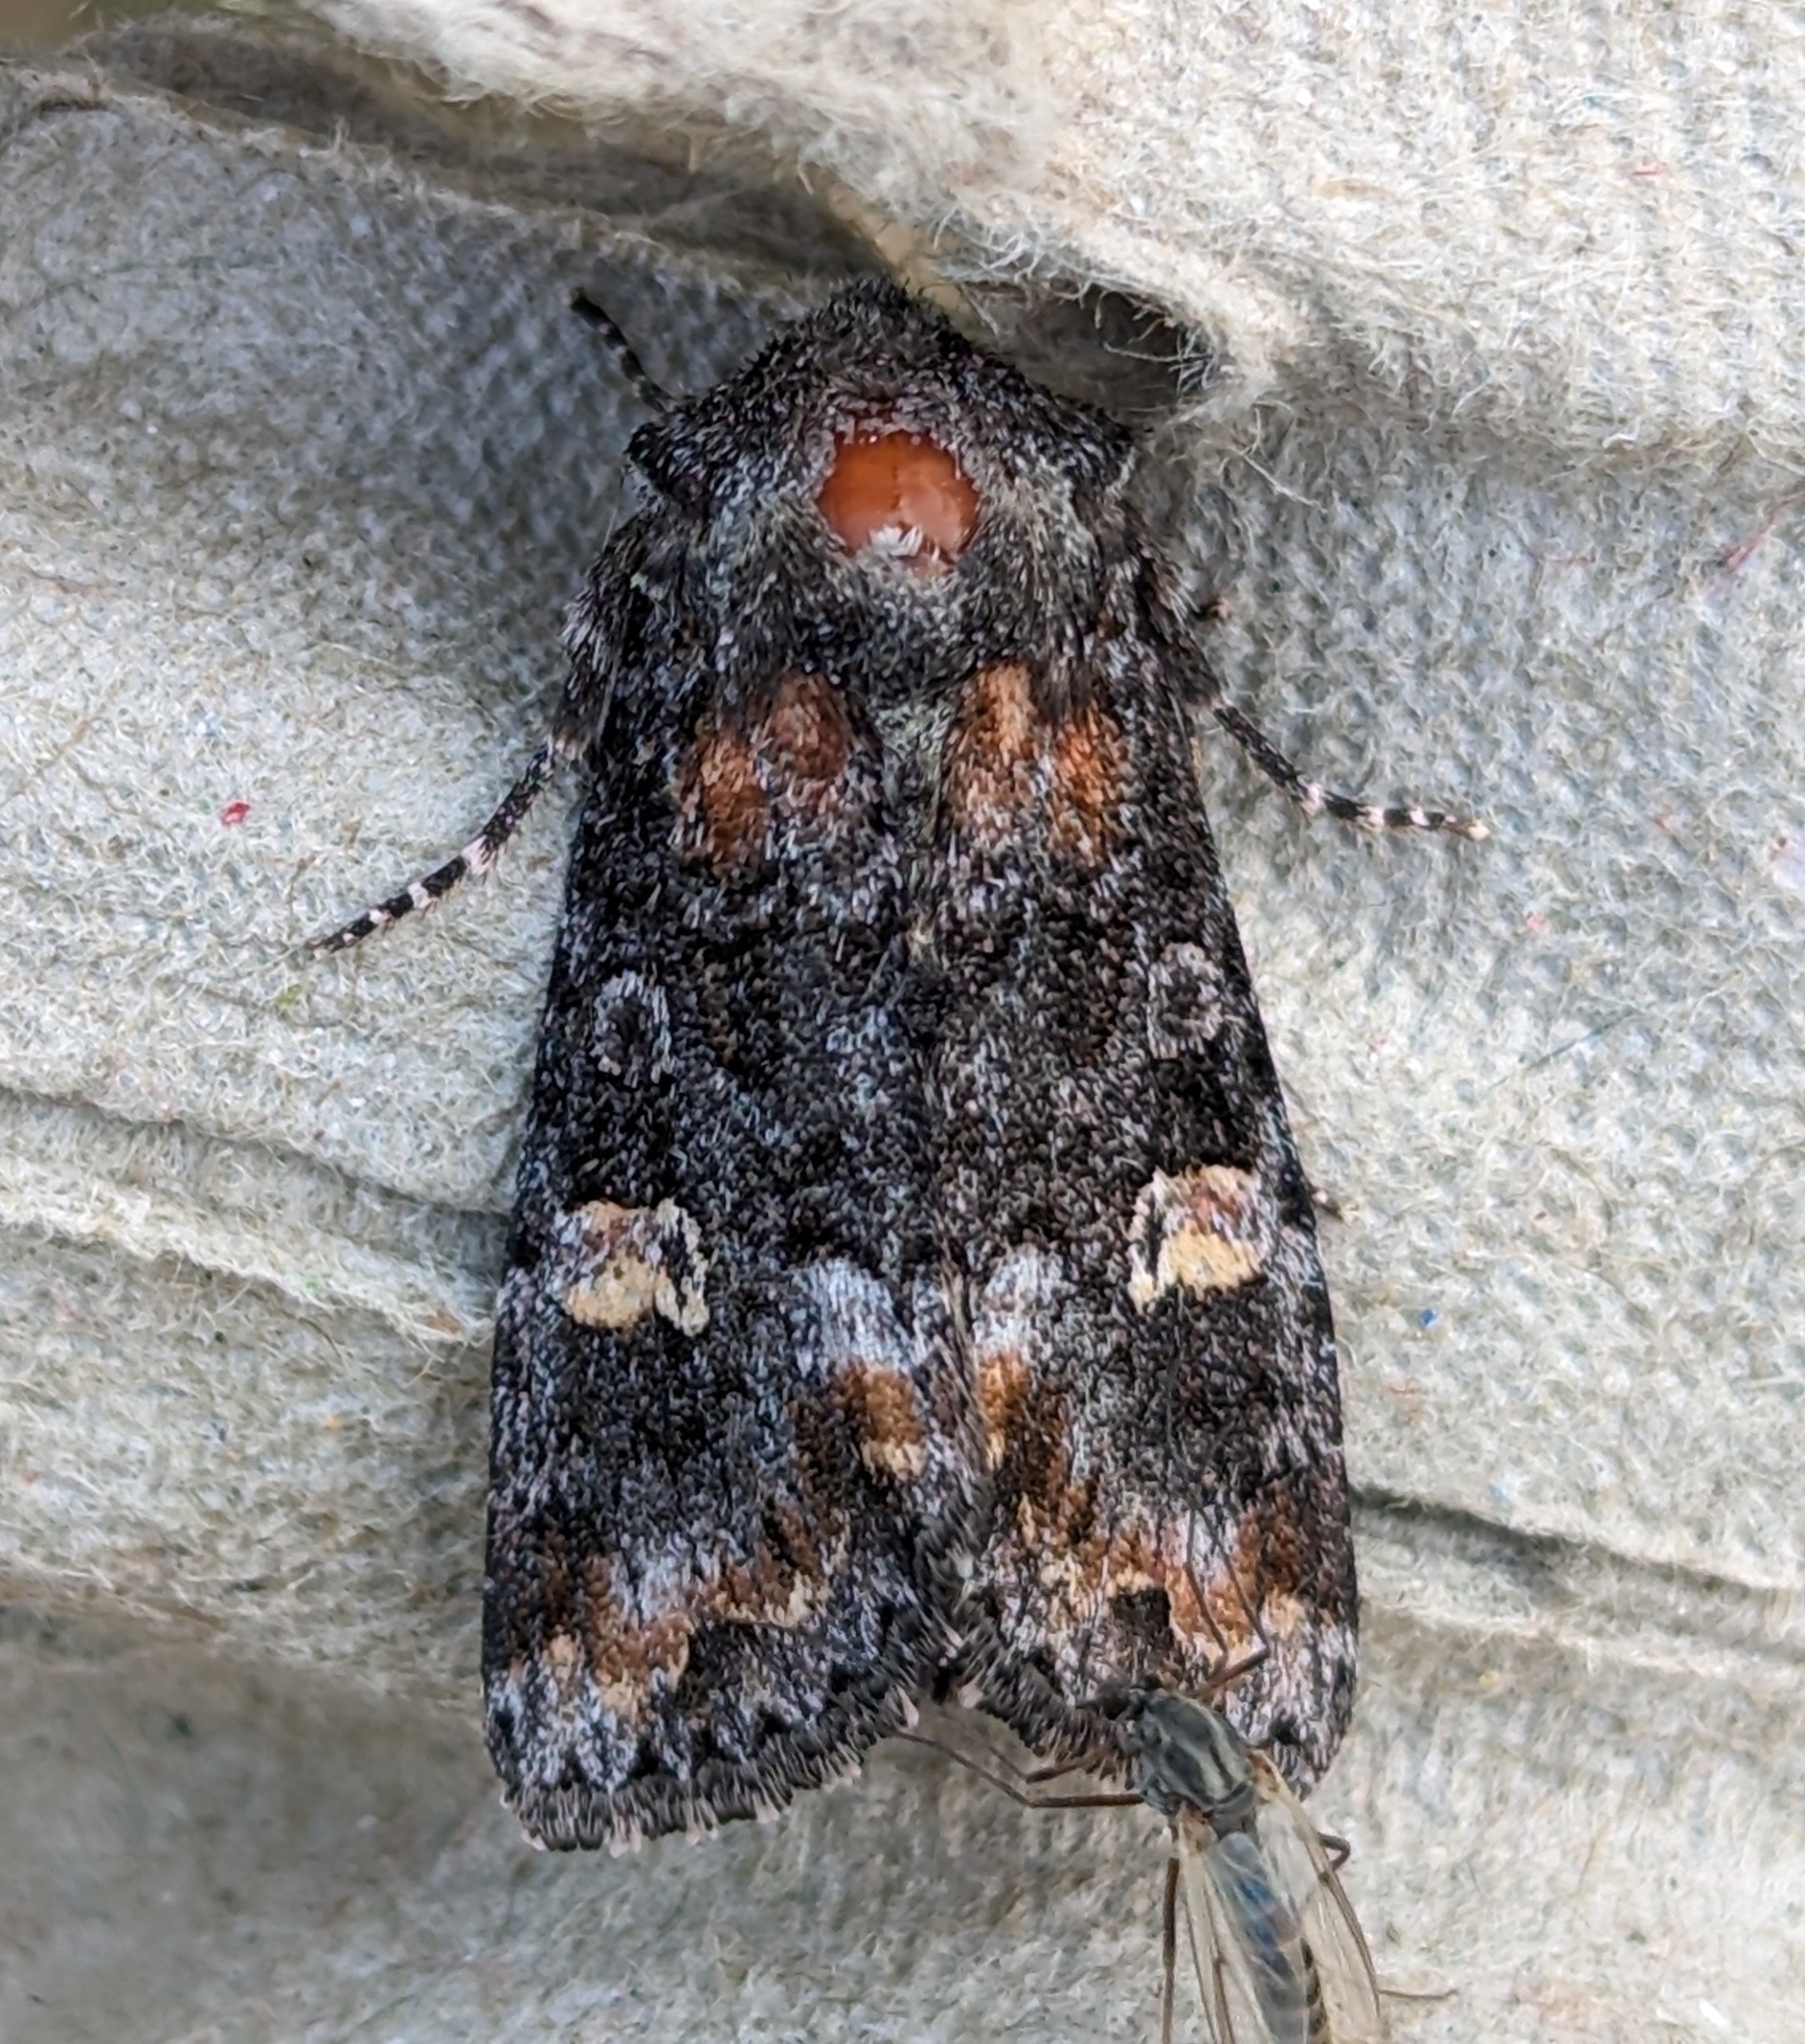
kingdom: Animalia
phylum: Arthropoda
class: Insecta
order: Lepidoptera
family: Noctuidae
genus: Spiramater
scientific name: Spiramater lutra
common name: Otter spiramater moth
